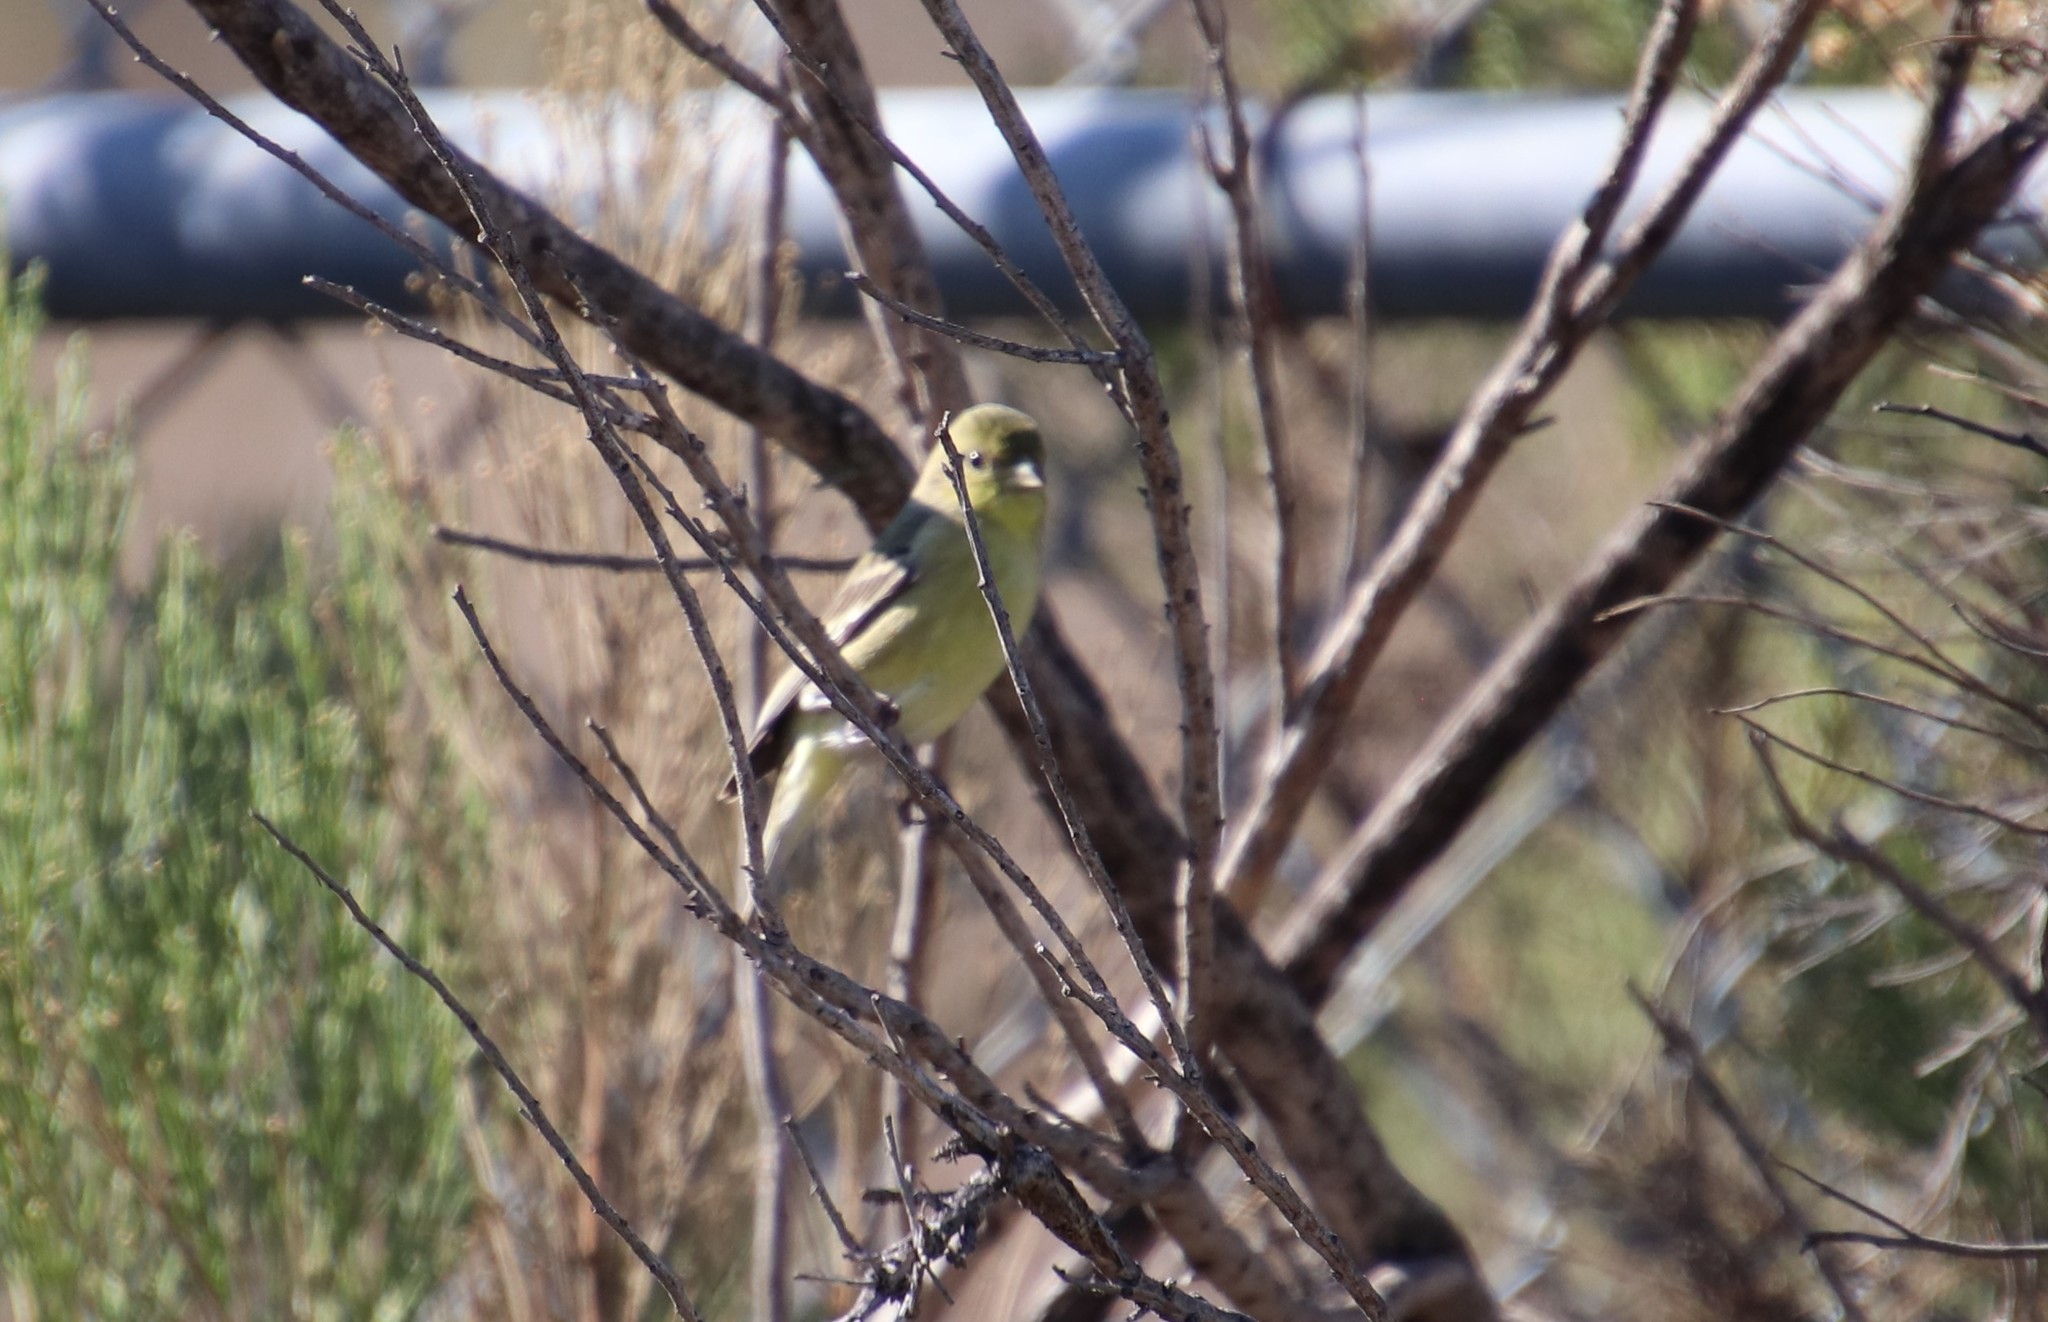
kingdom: Animalia
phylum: Chordata
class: Aves
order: Passeriformes
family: Fringillidae
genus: Spinus
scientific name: Spinus psaltria
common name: Lesser goldfinch
